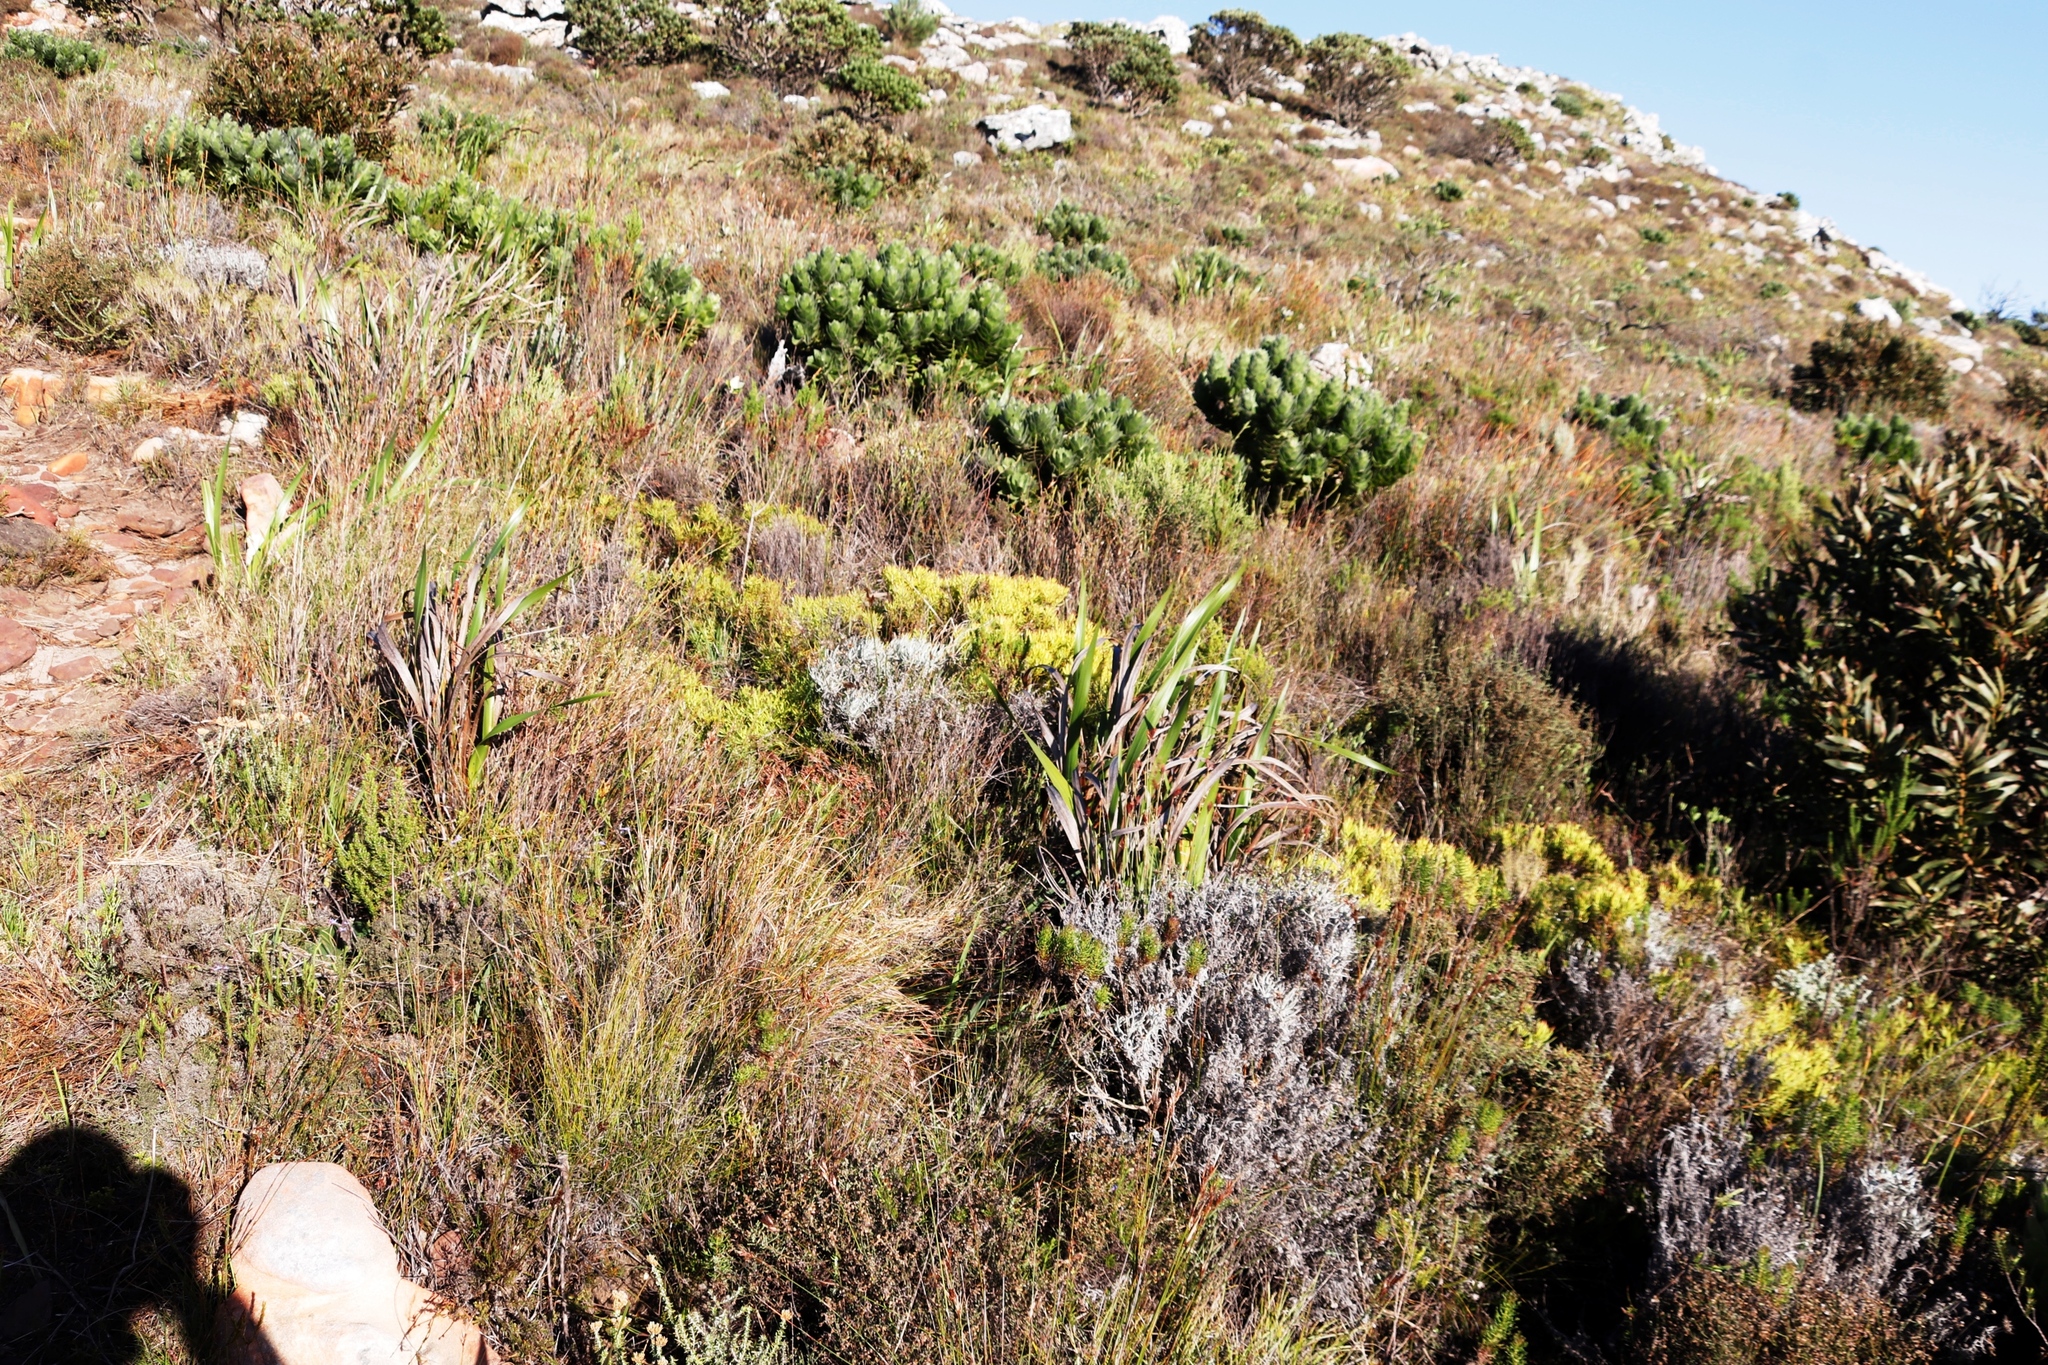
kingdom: Plantae
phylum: Tracheophyta
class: Magnoliopsida
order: Proteales
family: Proteaceae
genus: Leucospermum
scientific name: Leucospermum conocarpodendron
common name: Tree pincushion
